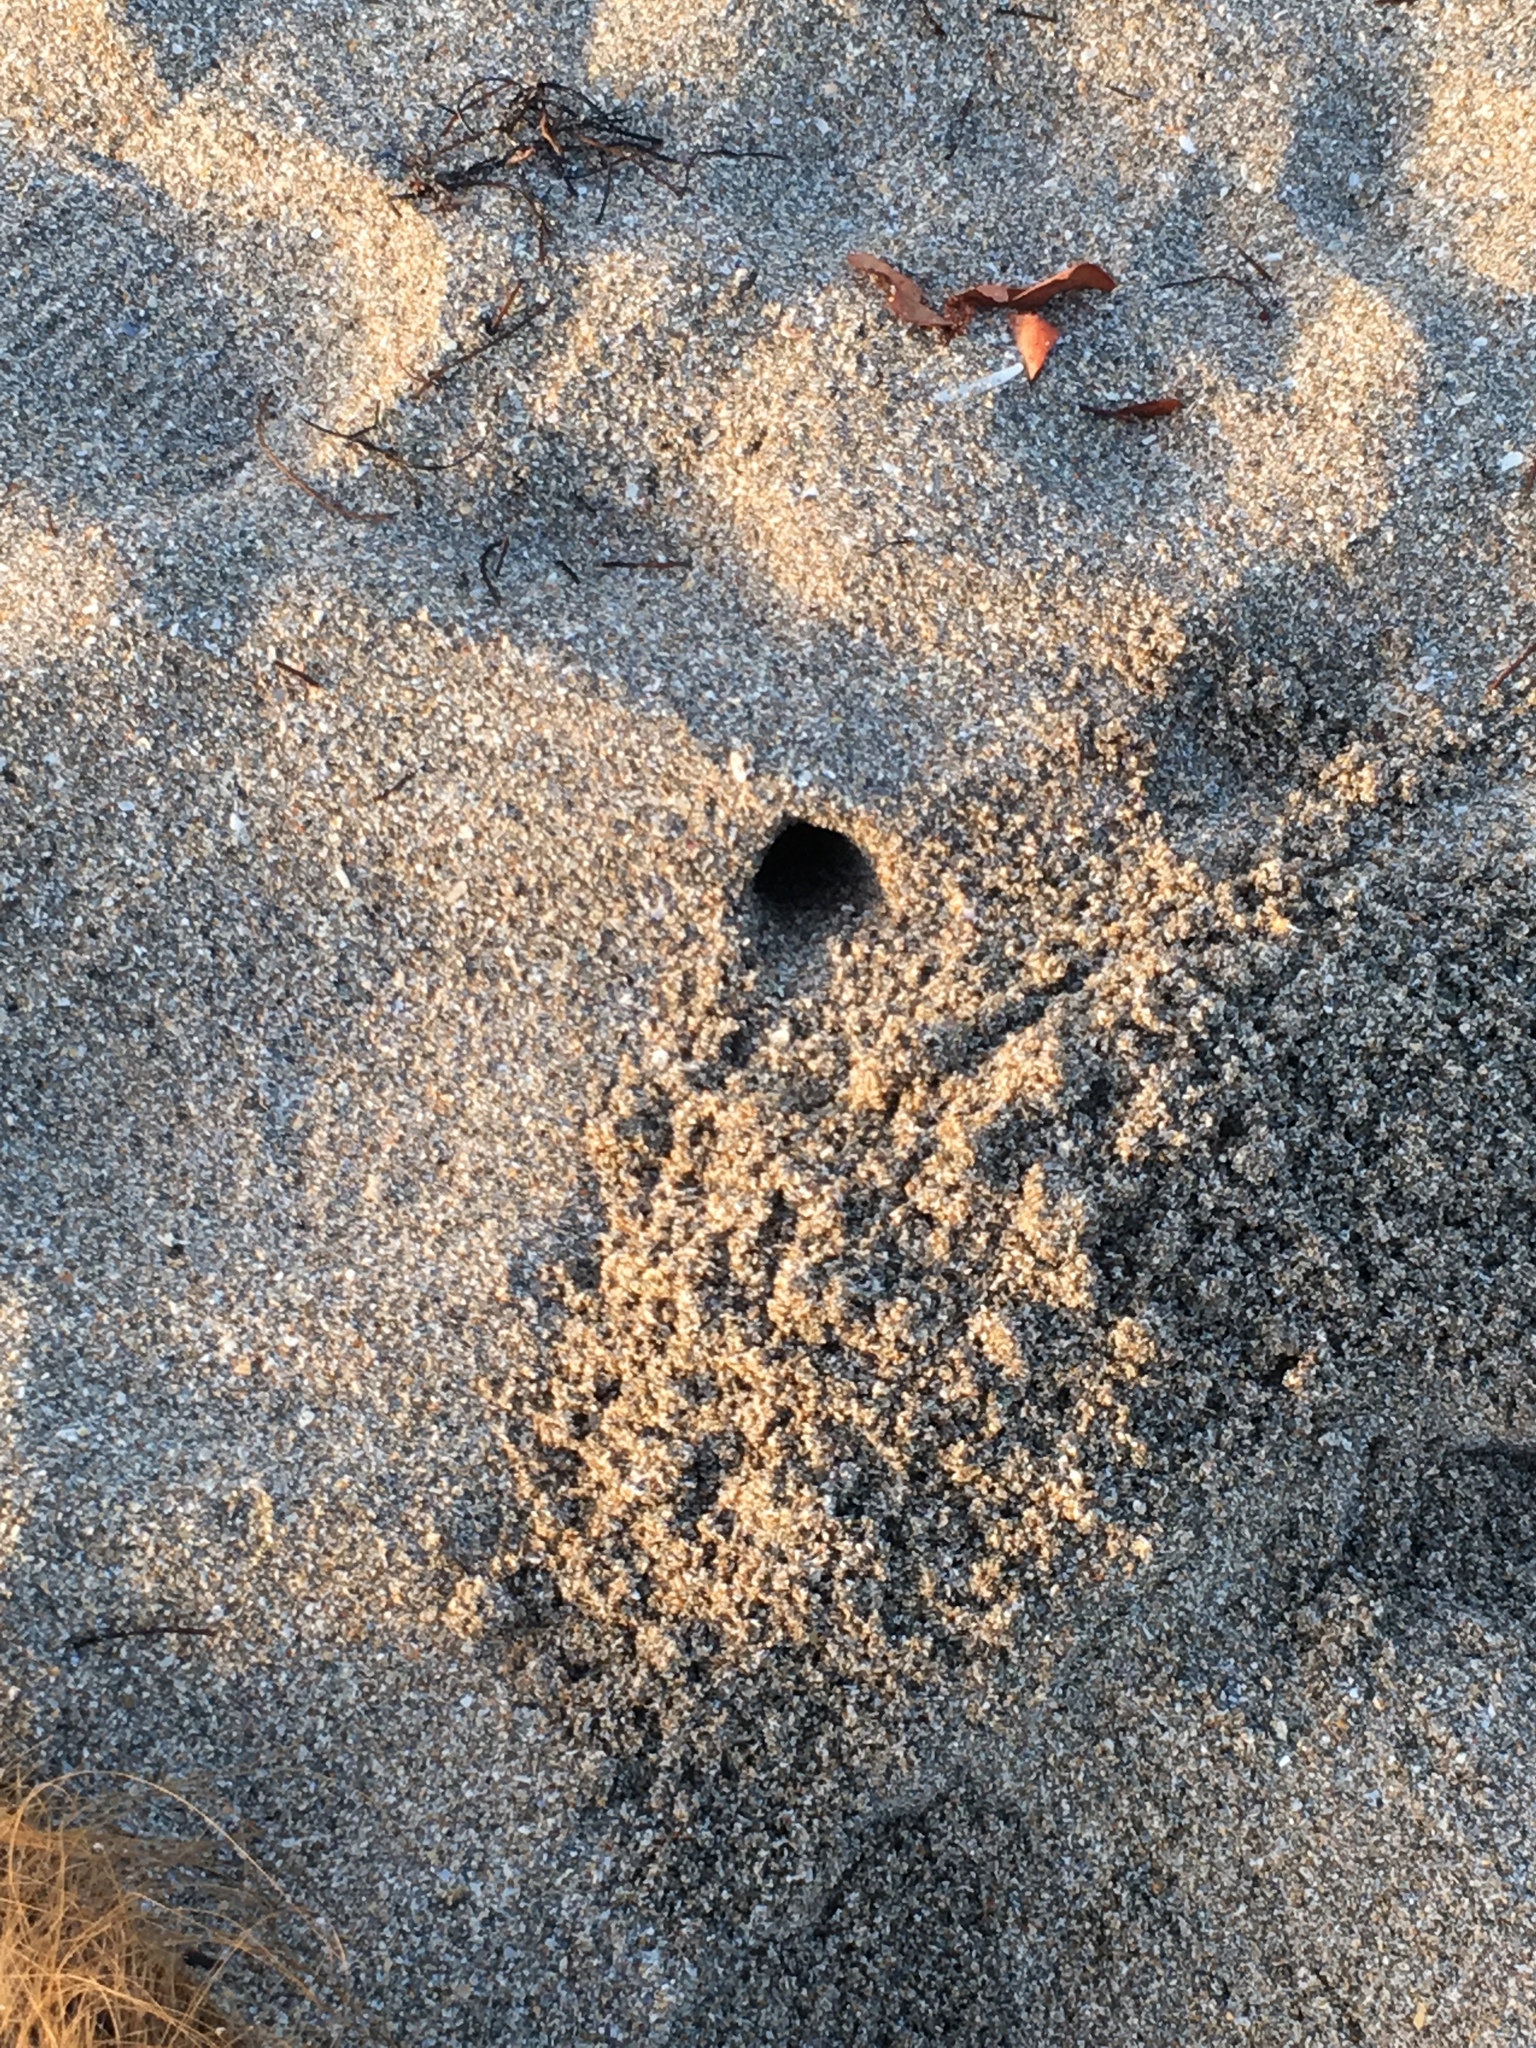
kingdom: Animalia
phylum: Arthropoda
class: Malacostraca
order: Decapoda
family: Ocypodidae
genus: Ocypode
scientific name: Ocypode quadrata
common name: Ghost crab
